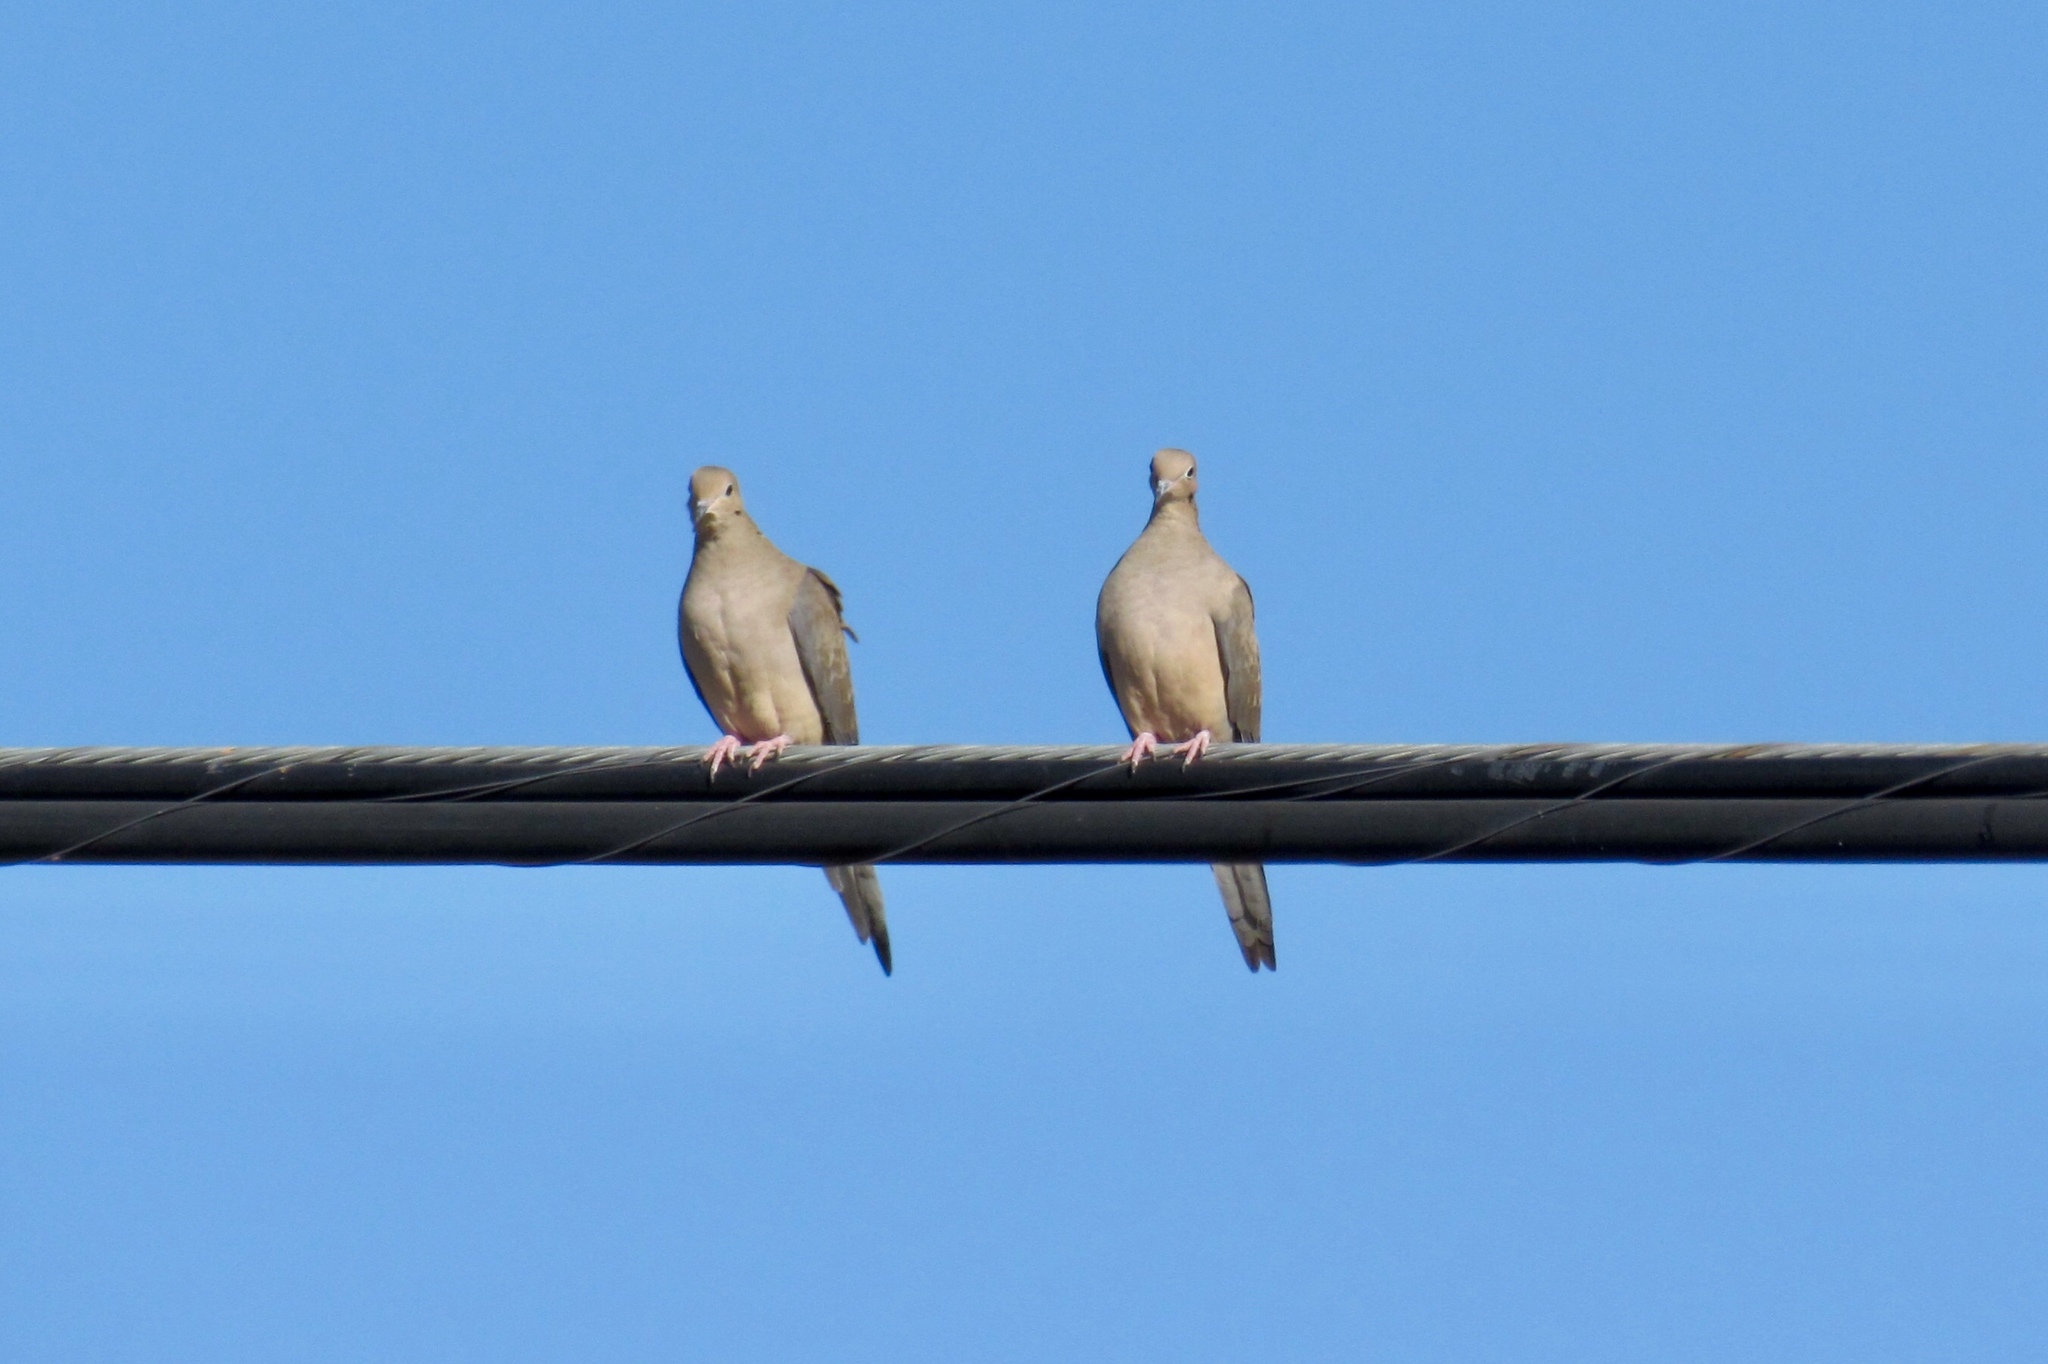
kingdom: Animalia
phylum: Chordata
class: Aves
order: Columbiformes
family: Columbidae
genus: Zenaida
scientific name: Zenaida macroura
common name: Mourning dove
